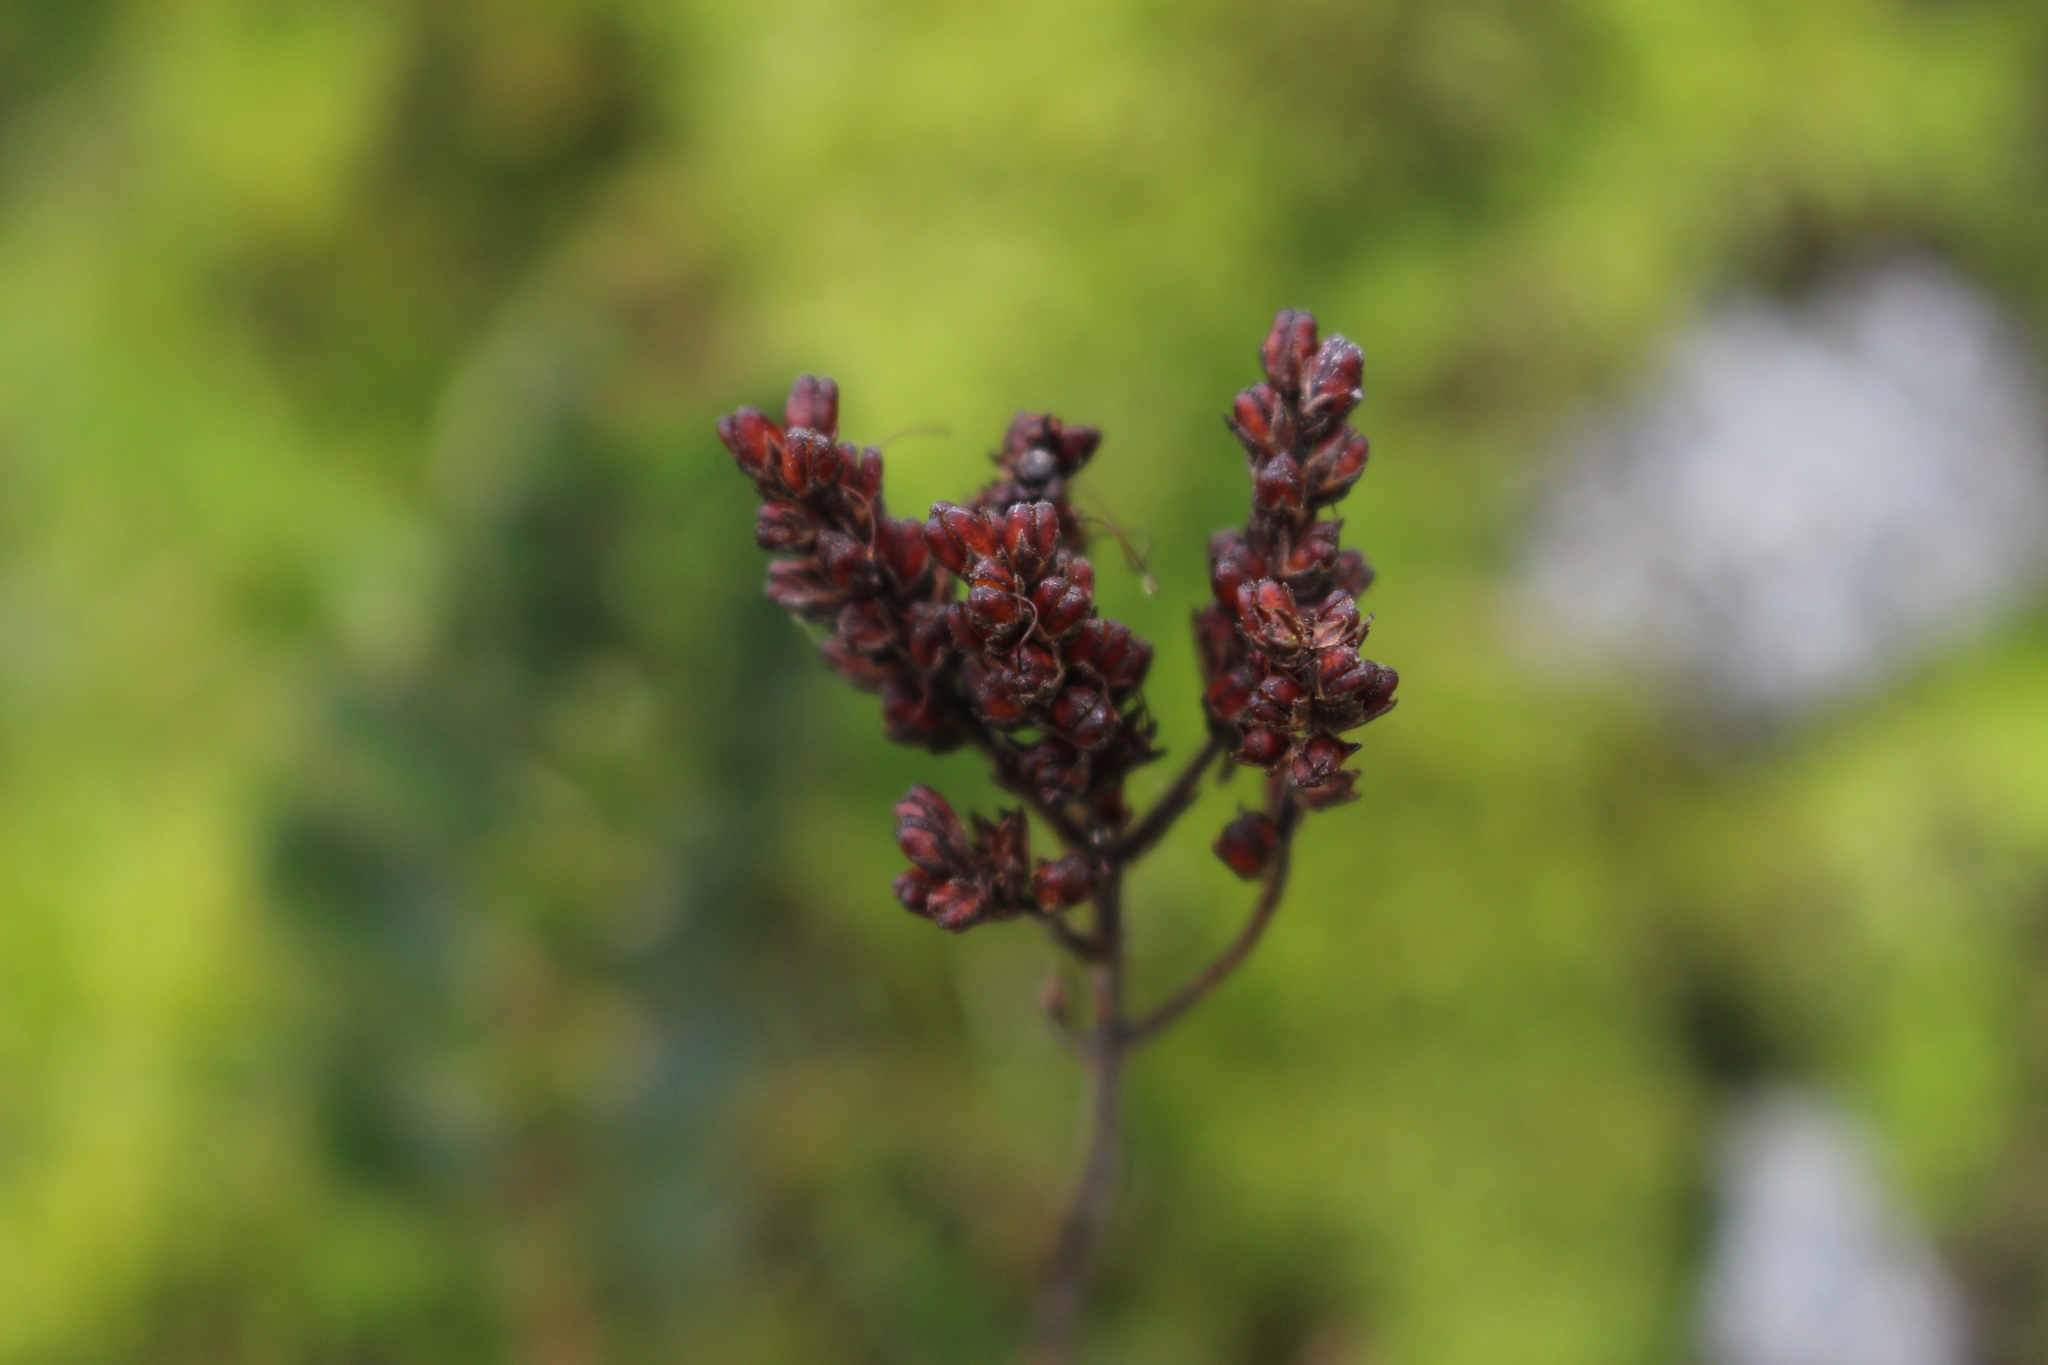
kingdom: Plantae
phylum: Tracheophyta
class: Magnoliopsida
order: Lamiales
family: Plantaginaceae
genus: Veronica
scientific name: Veronica lavaudiana
